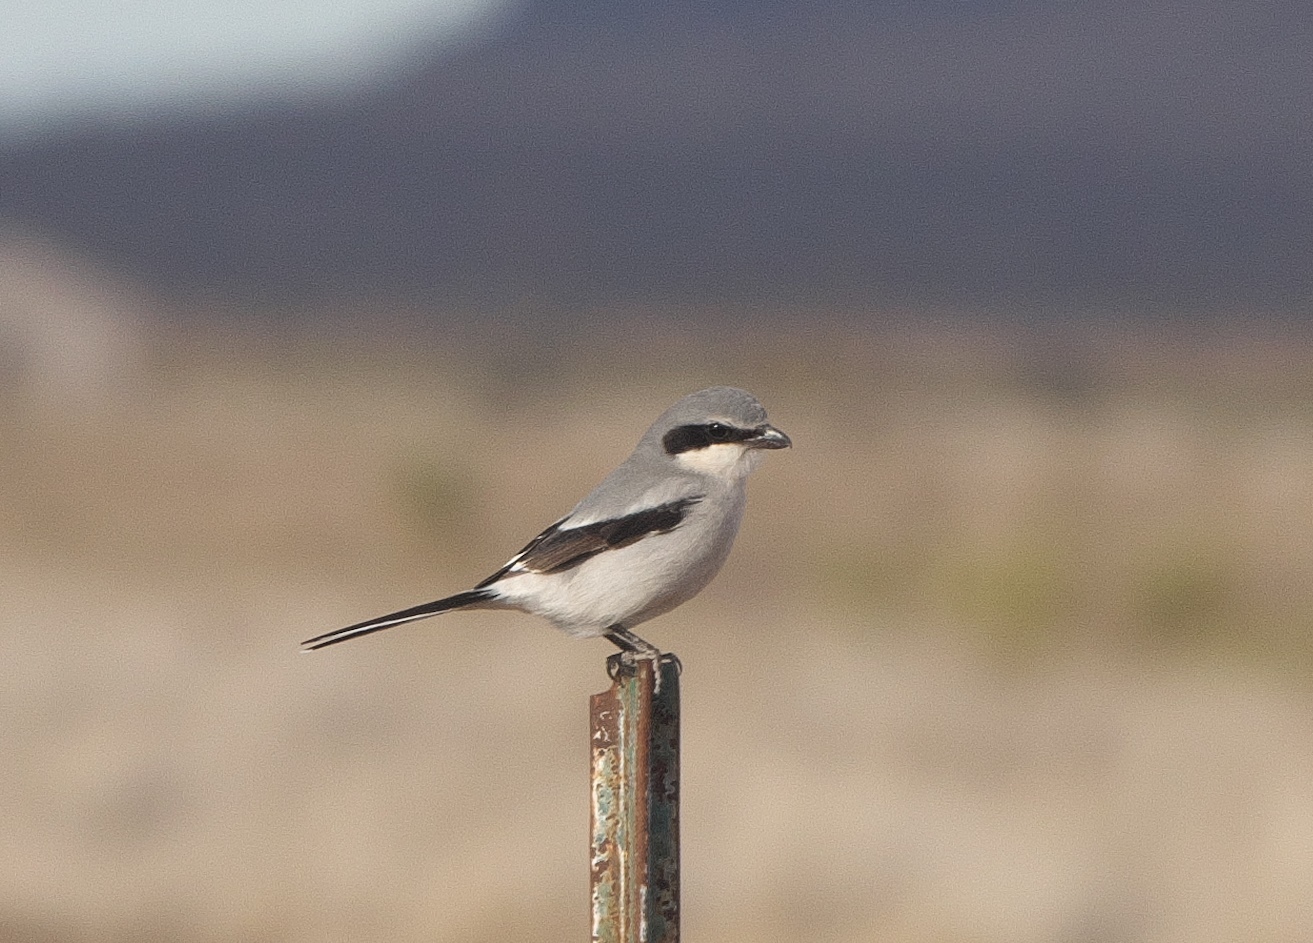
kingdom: Animalia
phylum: Chordata
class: Aves
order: Passeriformes
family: Laniidae
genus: Lanius
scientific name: Lanius ludovicianus
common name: Loggerhead shrike
